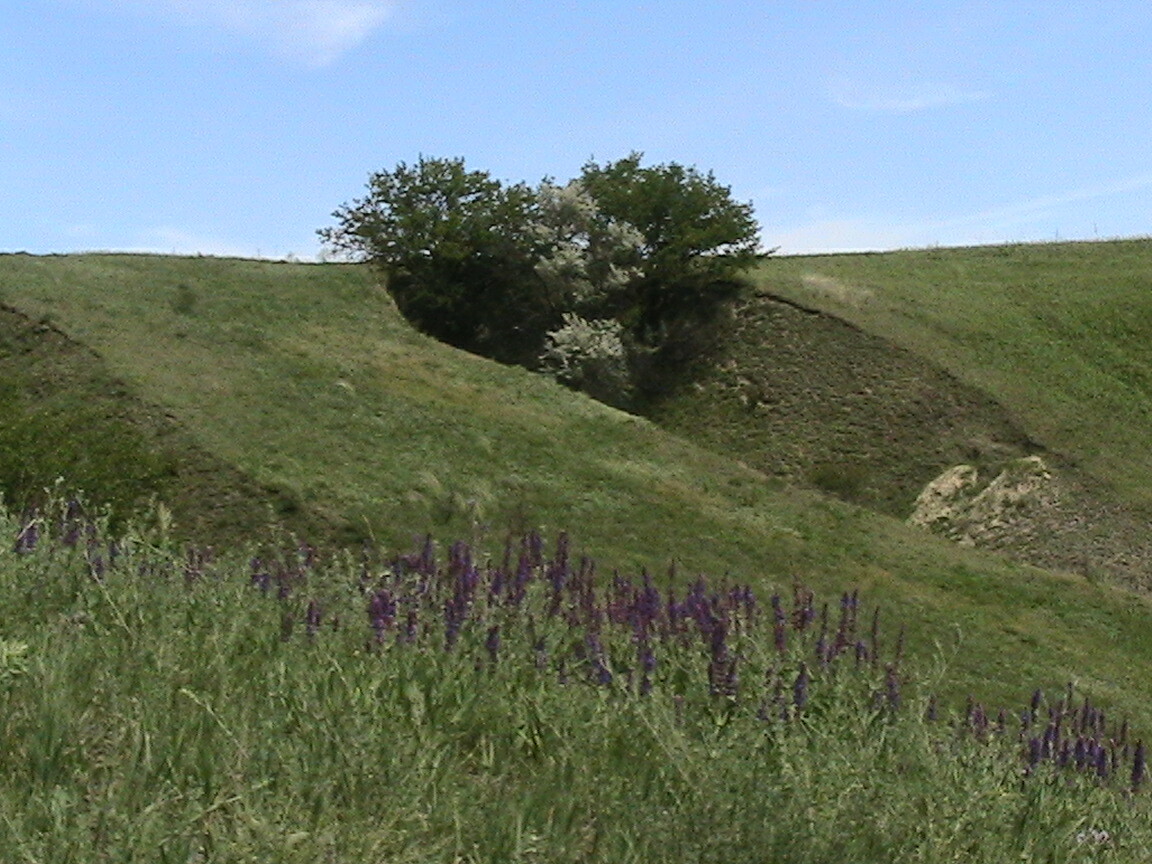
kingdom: Plantae
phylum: Tracheophyta
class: Magnoliopsida
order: Lamiales
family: Lamiaceae
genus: Salvia
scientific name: Salvia nemorosa
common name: Balkan clary
